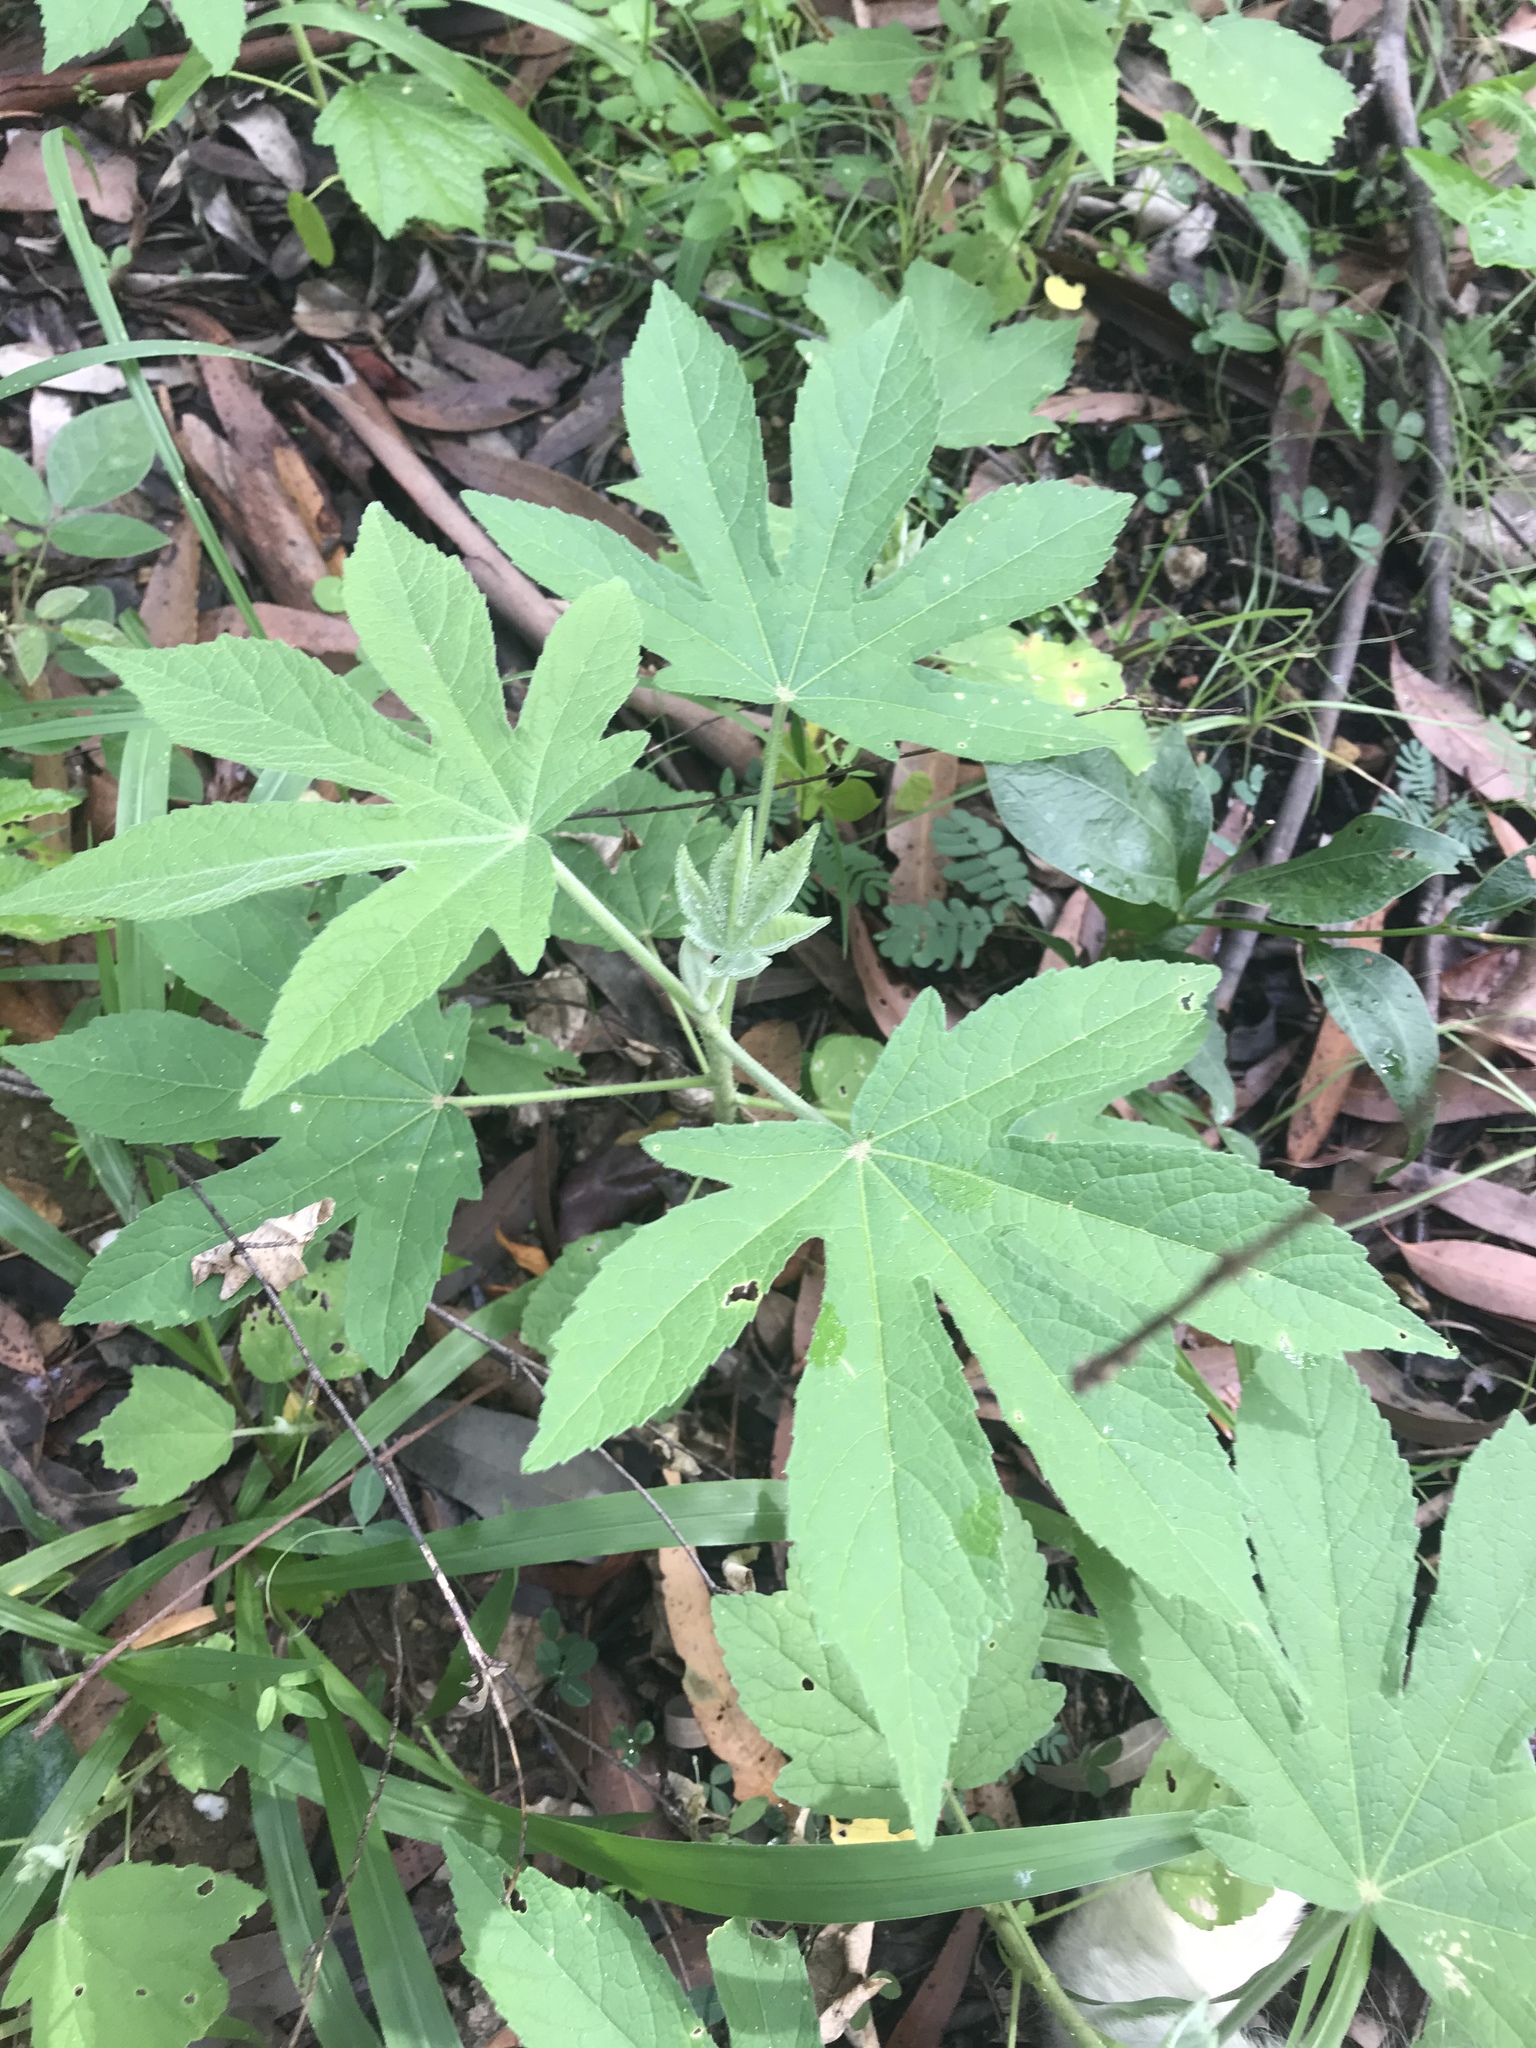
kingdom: Plantae
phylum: Tracheophyta
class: Magnoliopsida
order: Malvales
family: Malvaceae
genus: Hibiscus
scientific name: Hibiscus splendens
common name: Hollyhock-tree
